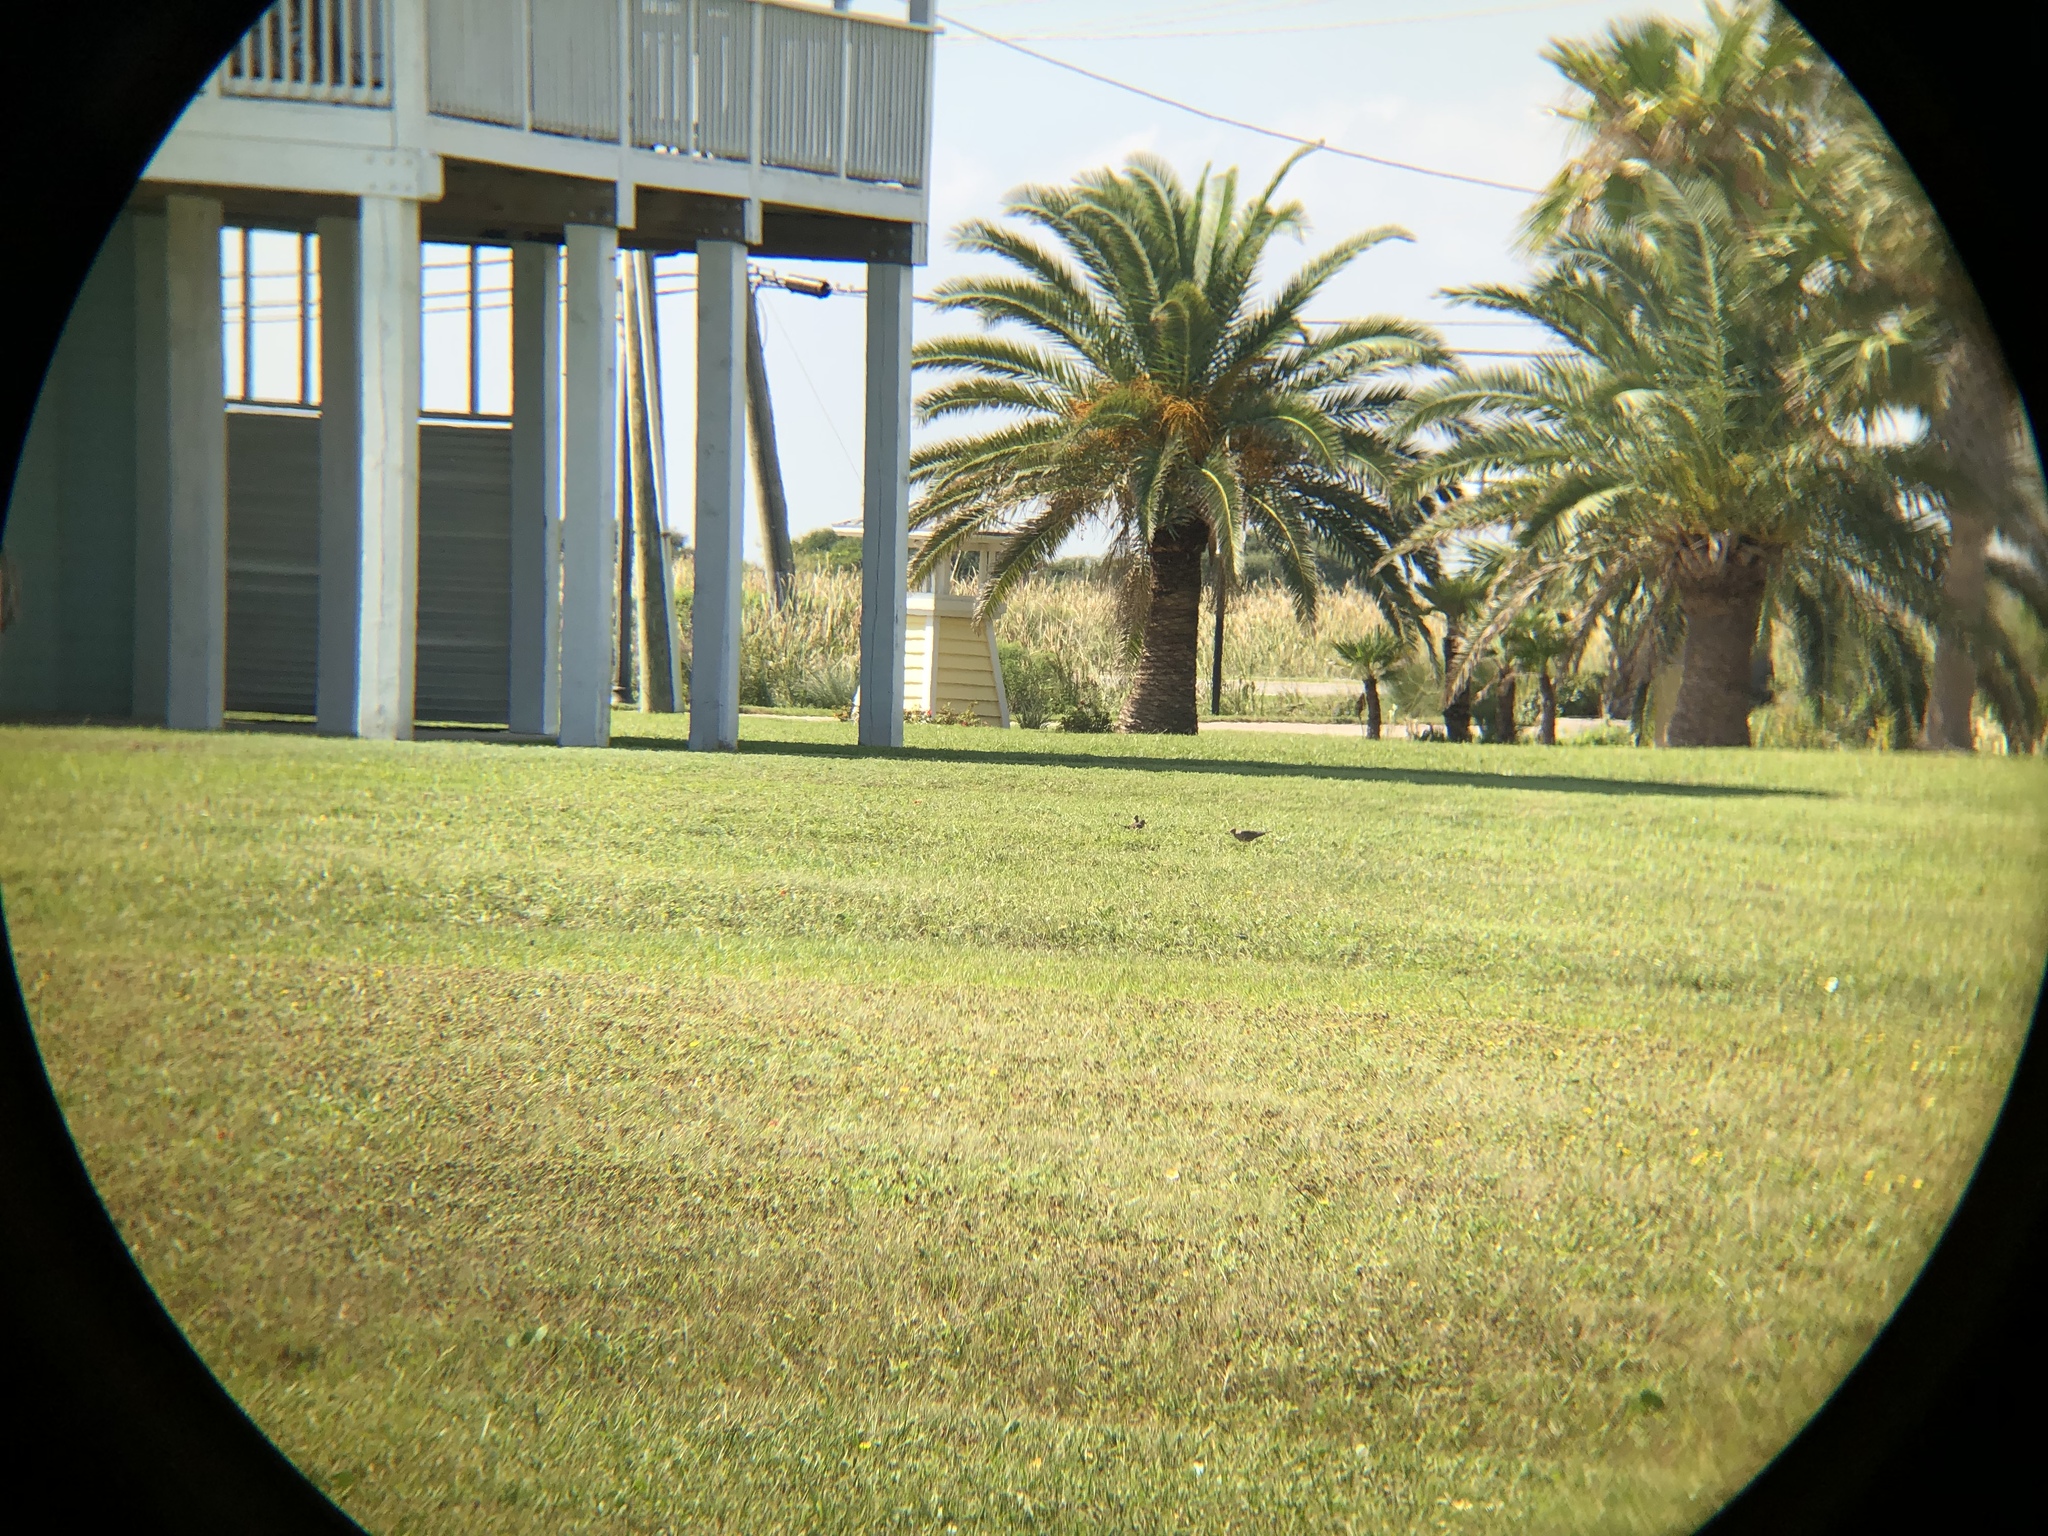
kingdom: Animalia
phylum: Chordata
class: Aves
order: Columbiformes
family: Columbidae
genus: Zenaida
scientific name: Zenaida macroura
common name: Mourning dove
